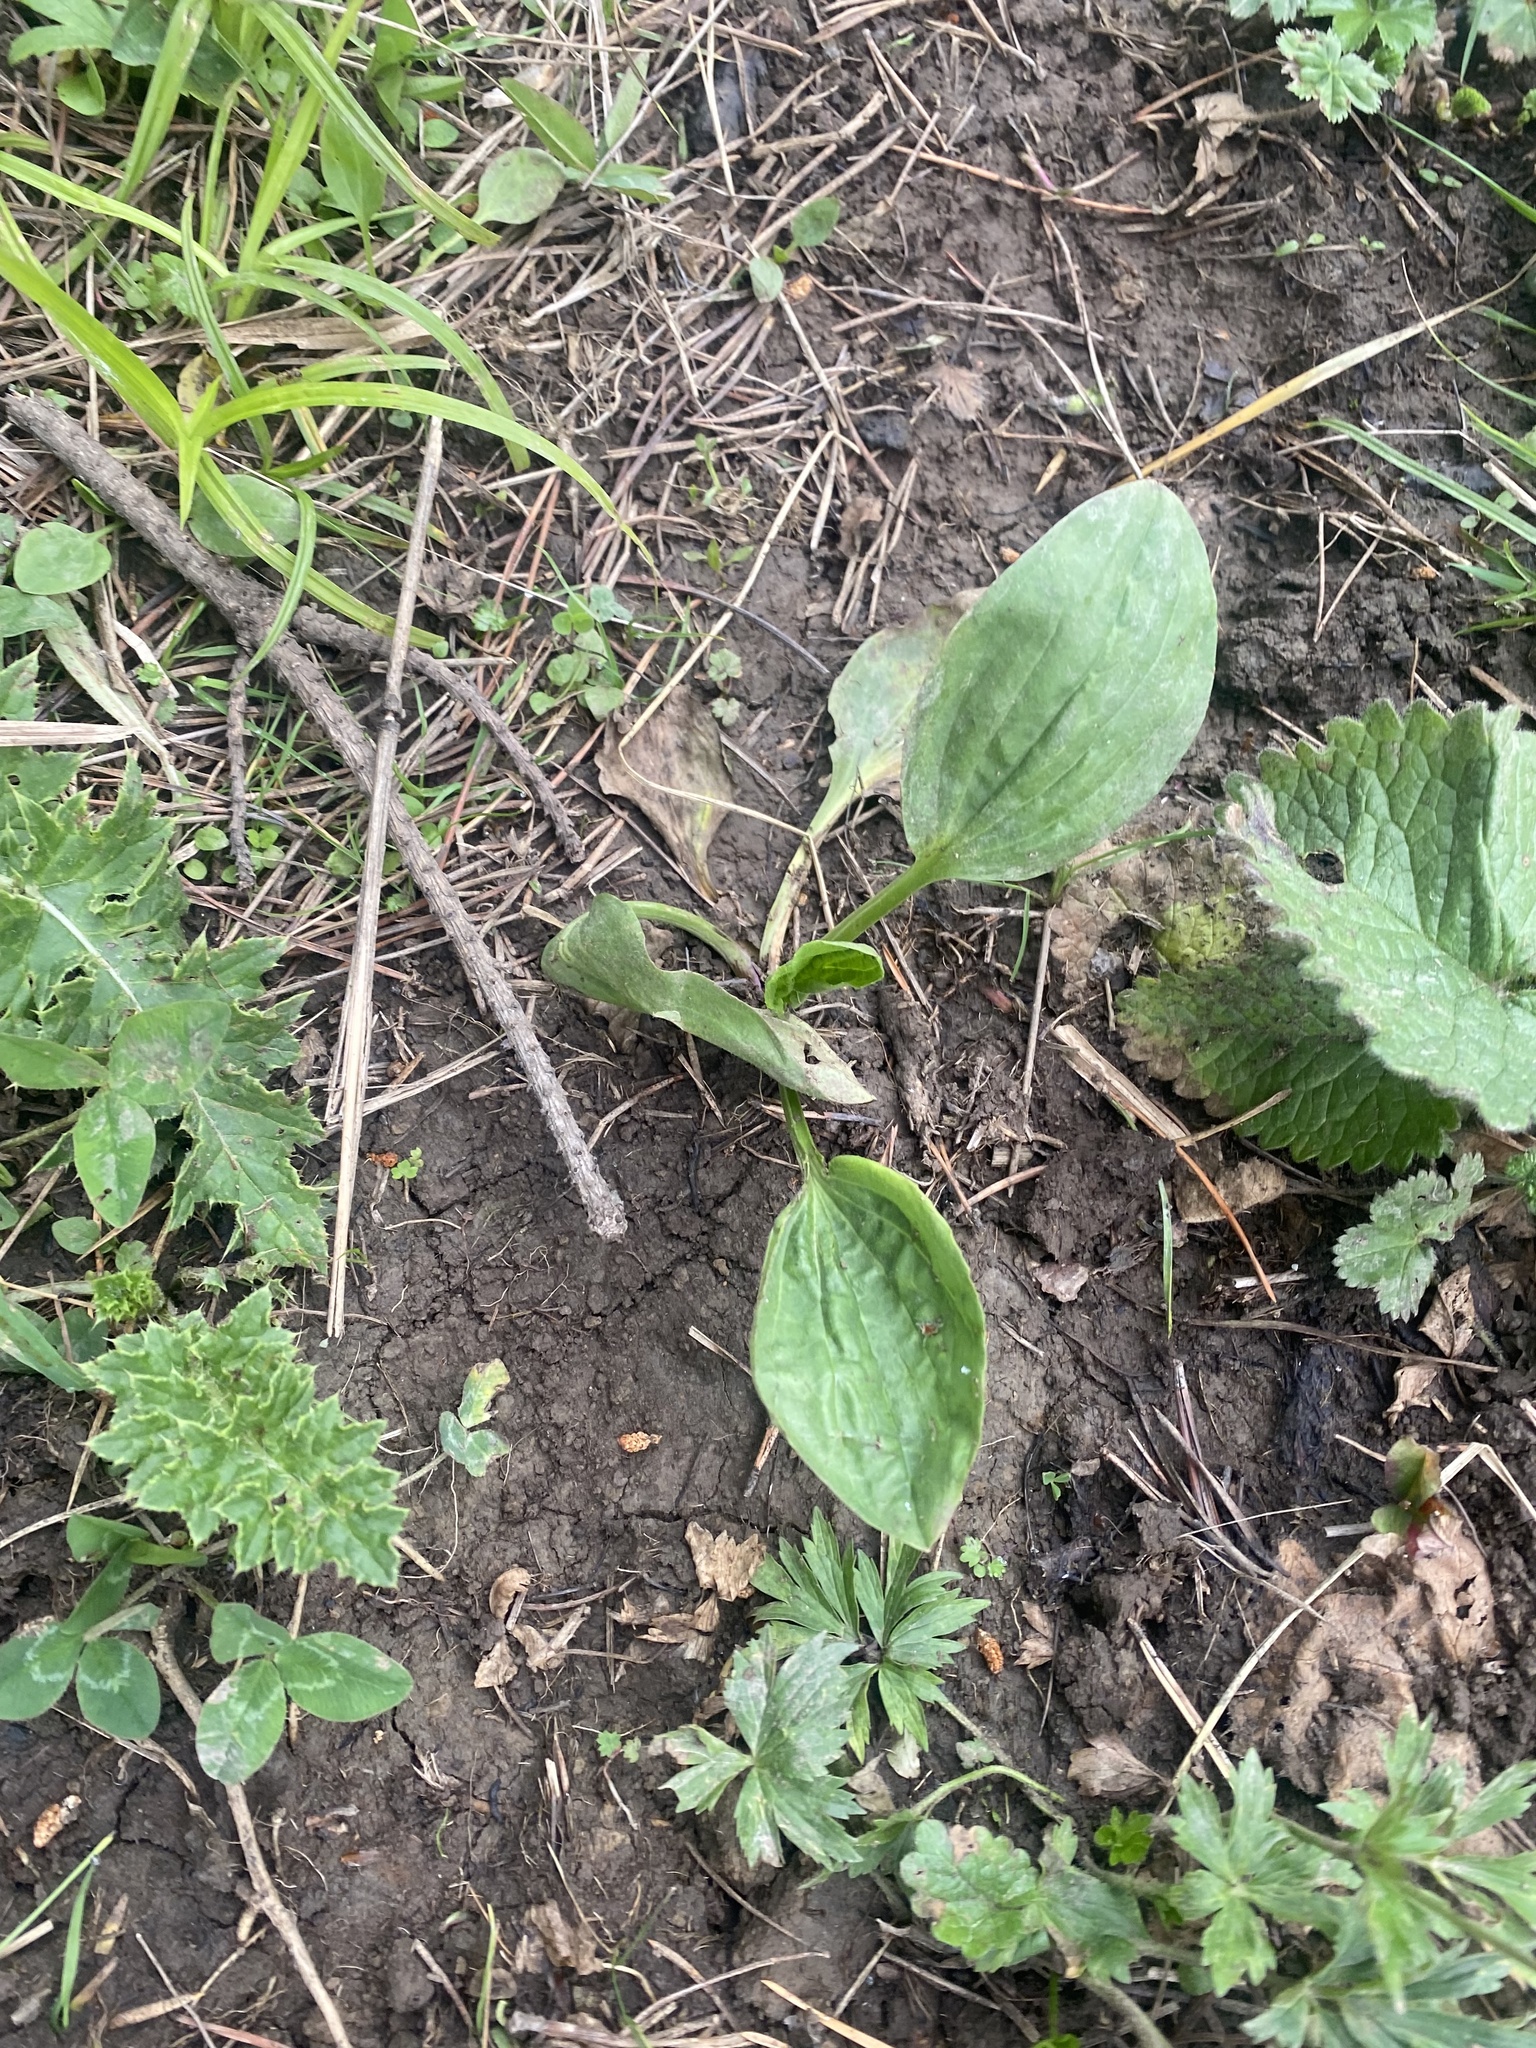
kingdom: Plantae
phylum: Tracheophyta
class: Magnoliopsida
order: Lamiales
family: Plantaginaceae
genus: Plantago
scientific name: Plantago major
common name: Common plantain
